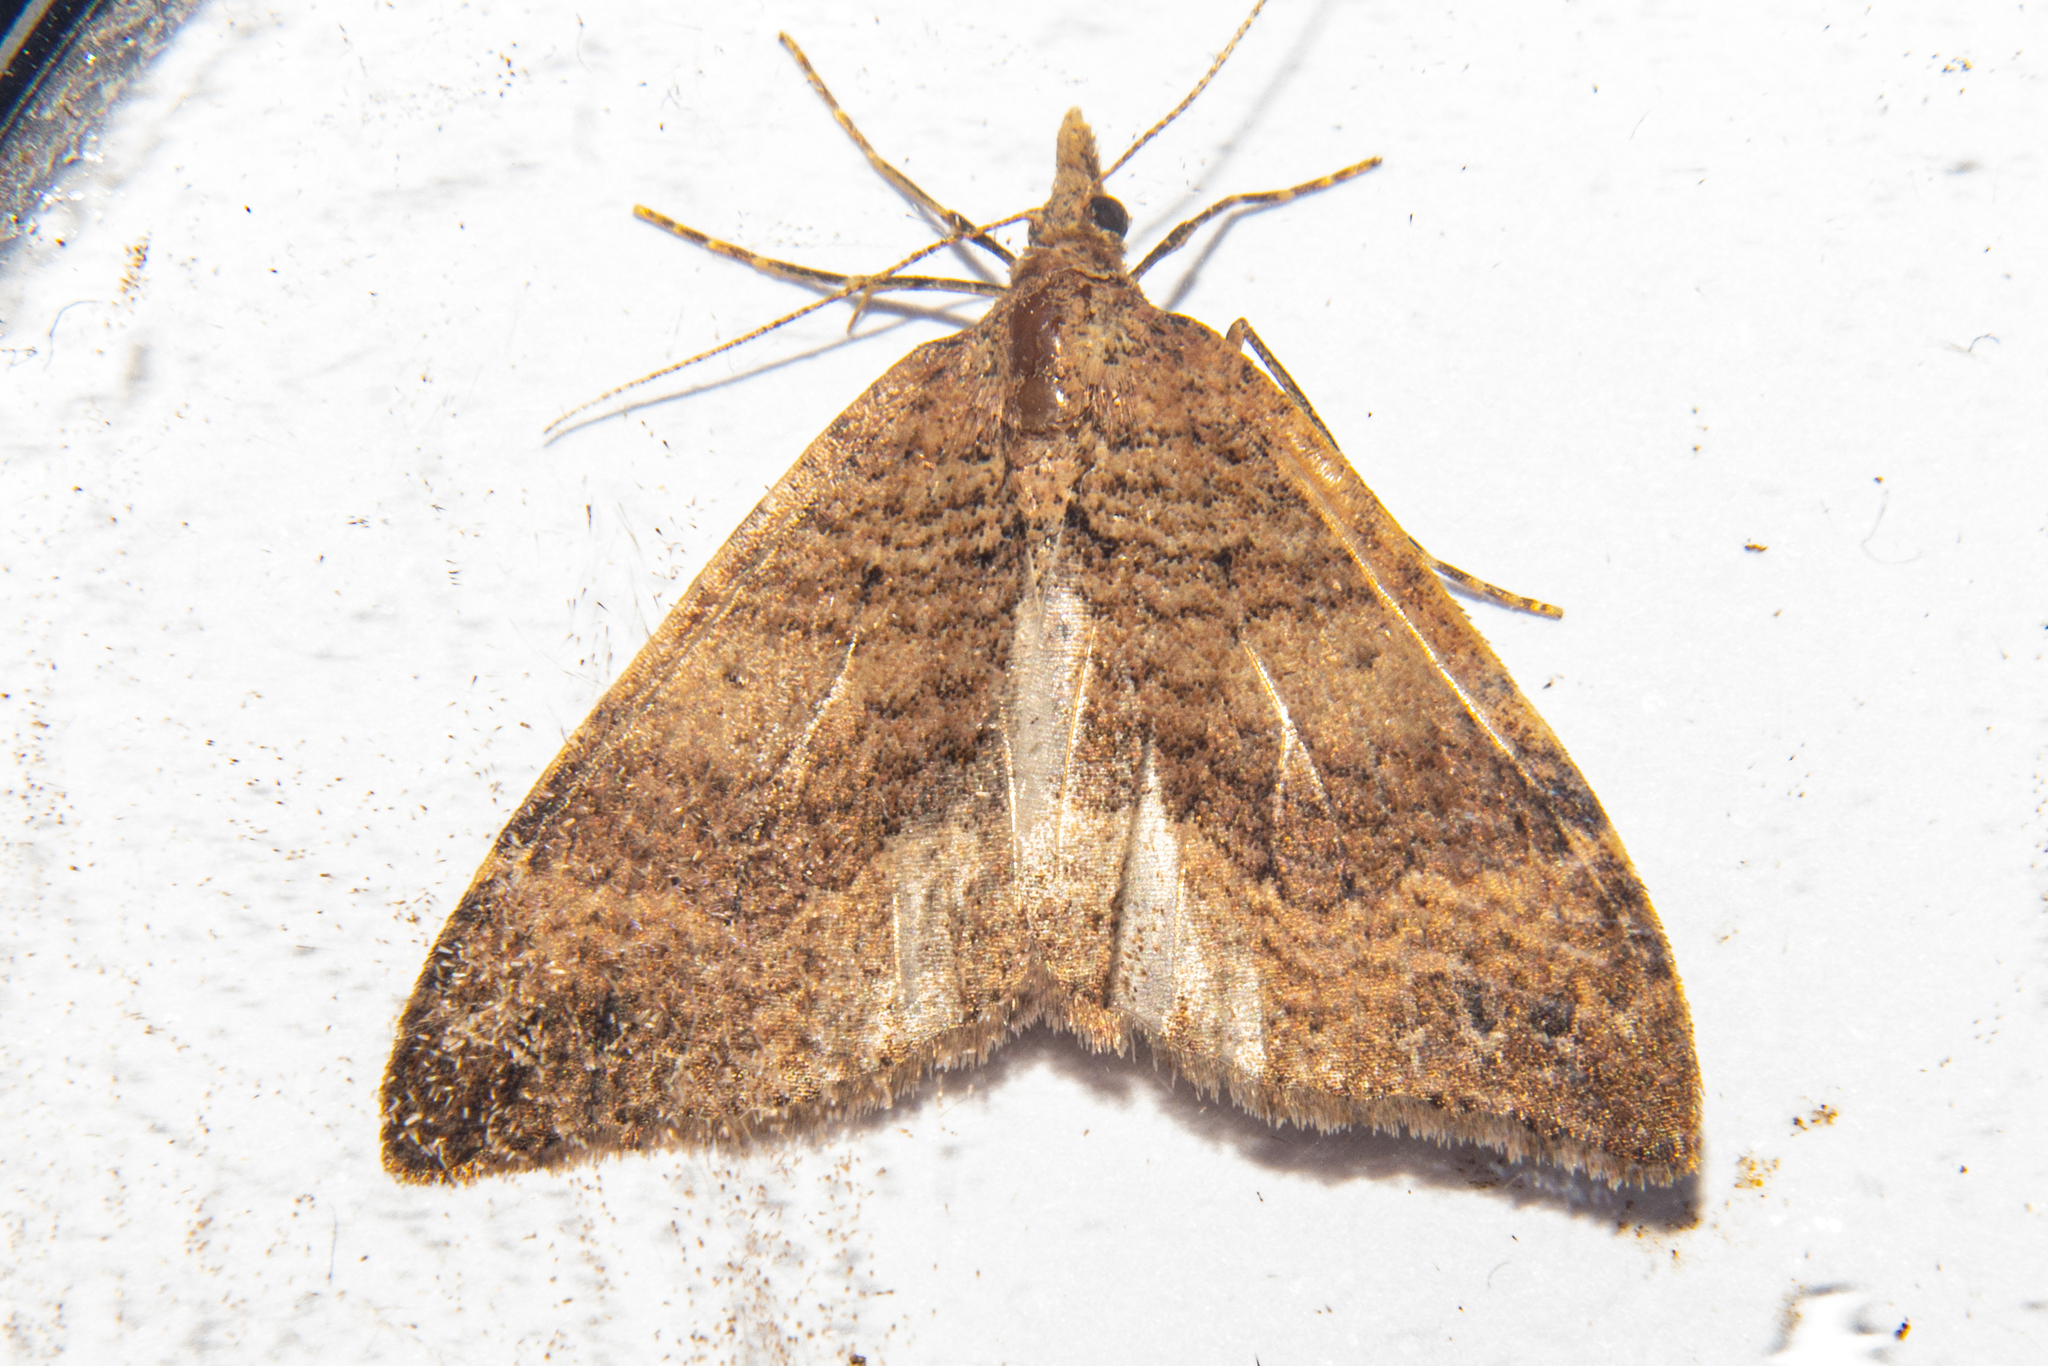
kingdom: Animalia
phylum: Arthropoda
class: Insecta
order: Lepidoptera
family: Geometridae
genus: Homodotis
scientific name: Homodotis falcata
